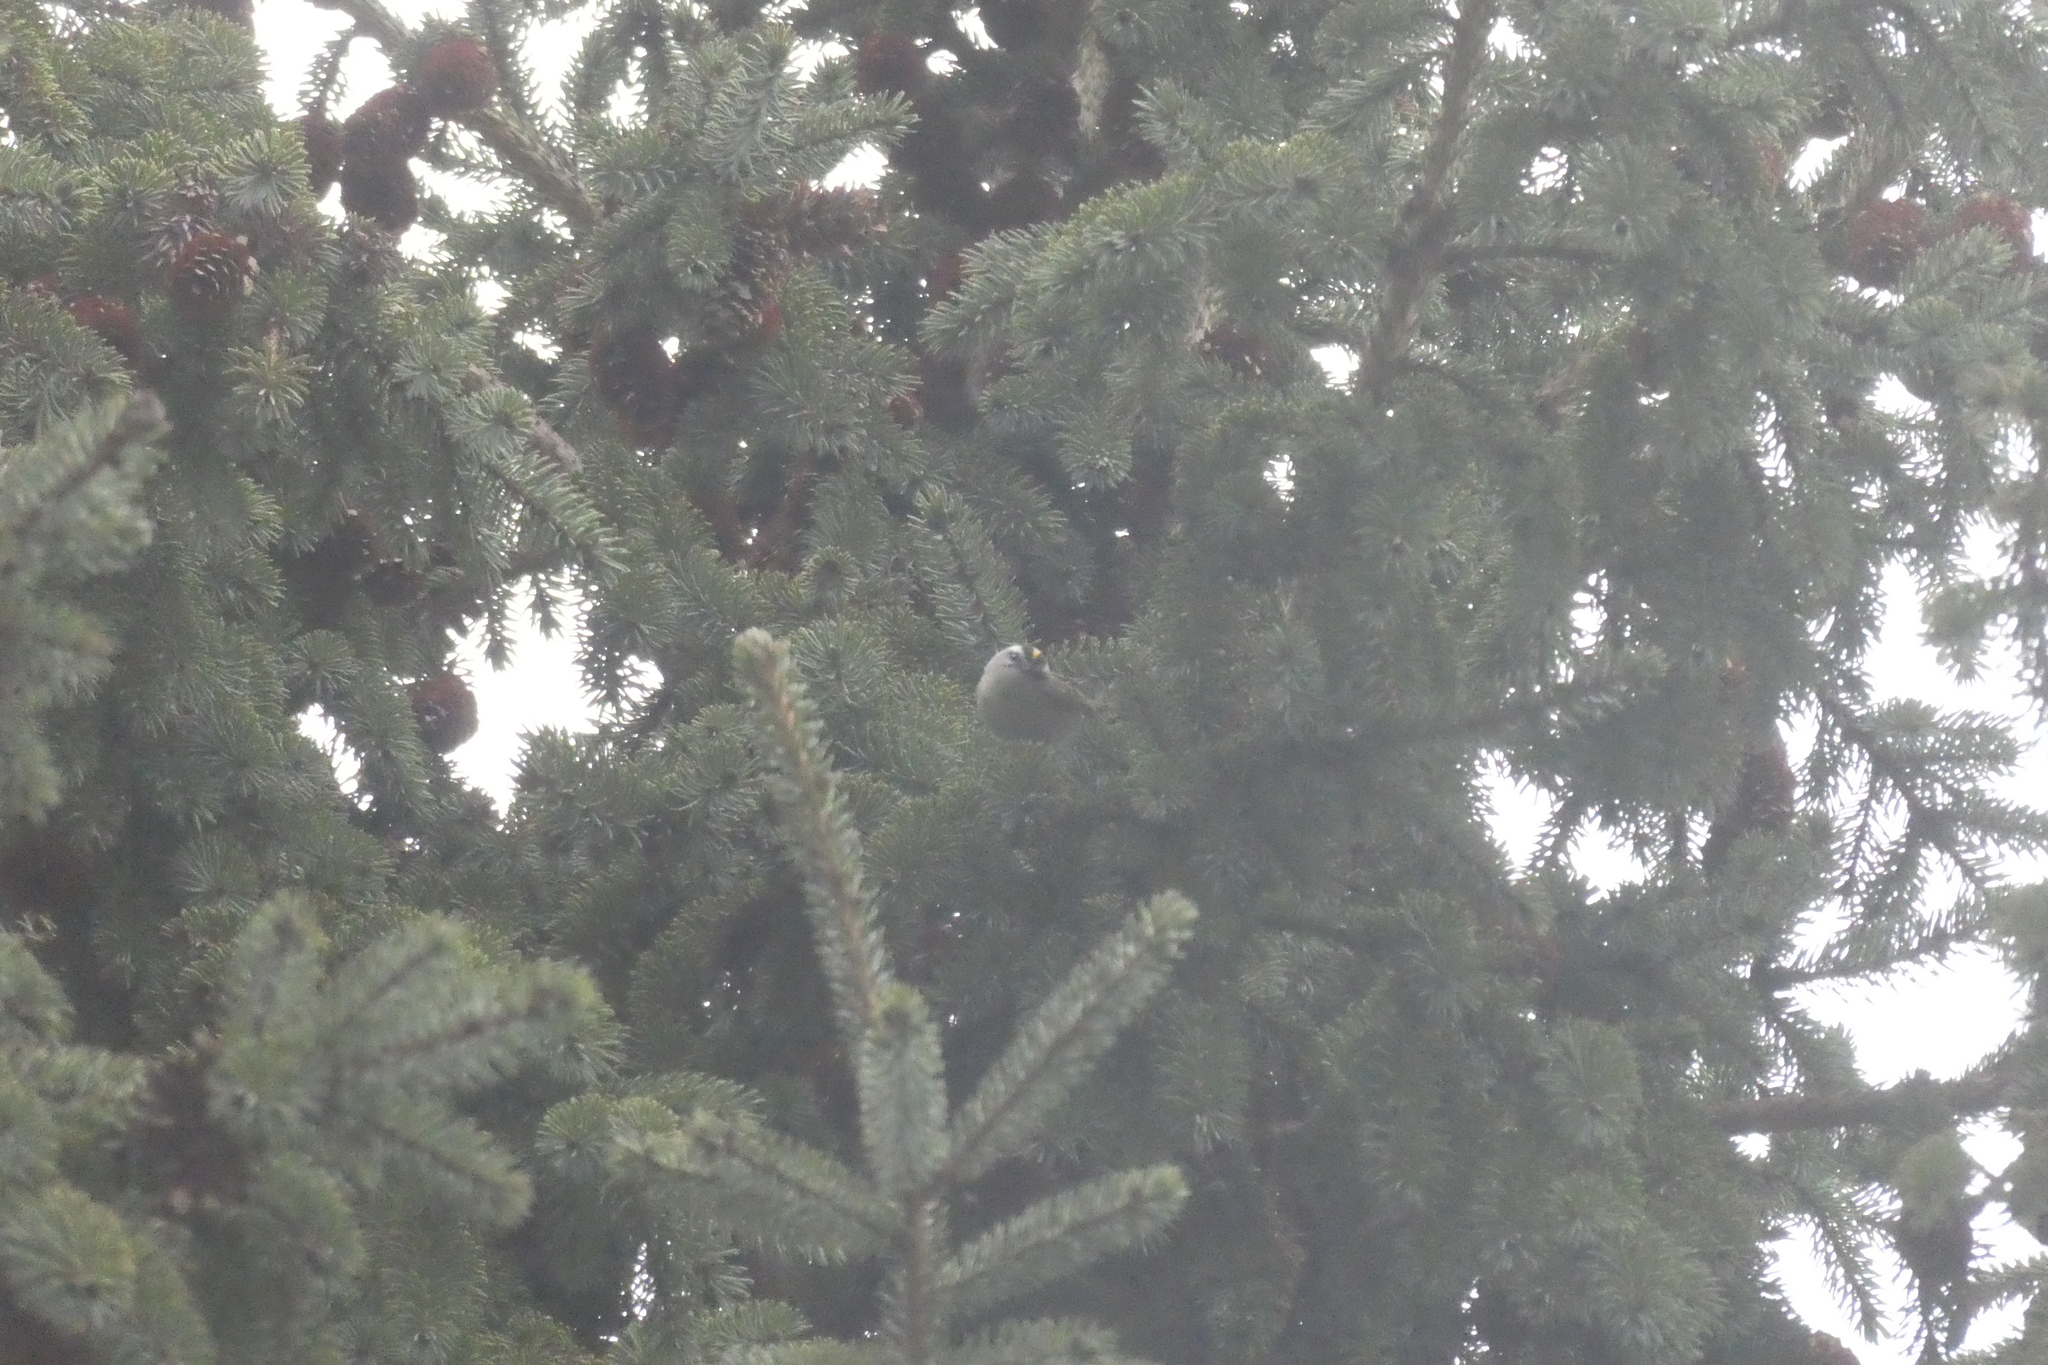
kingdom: Animalia
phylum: Chordata
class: Aves
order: Passeriformes
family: Regulidae
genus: Regulus
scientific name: Regulus satrapa
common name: Golden-crowned kinglet
